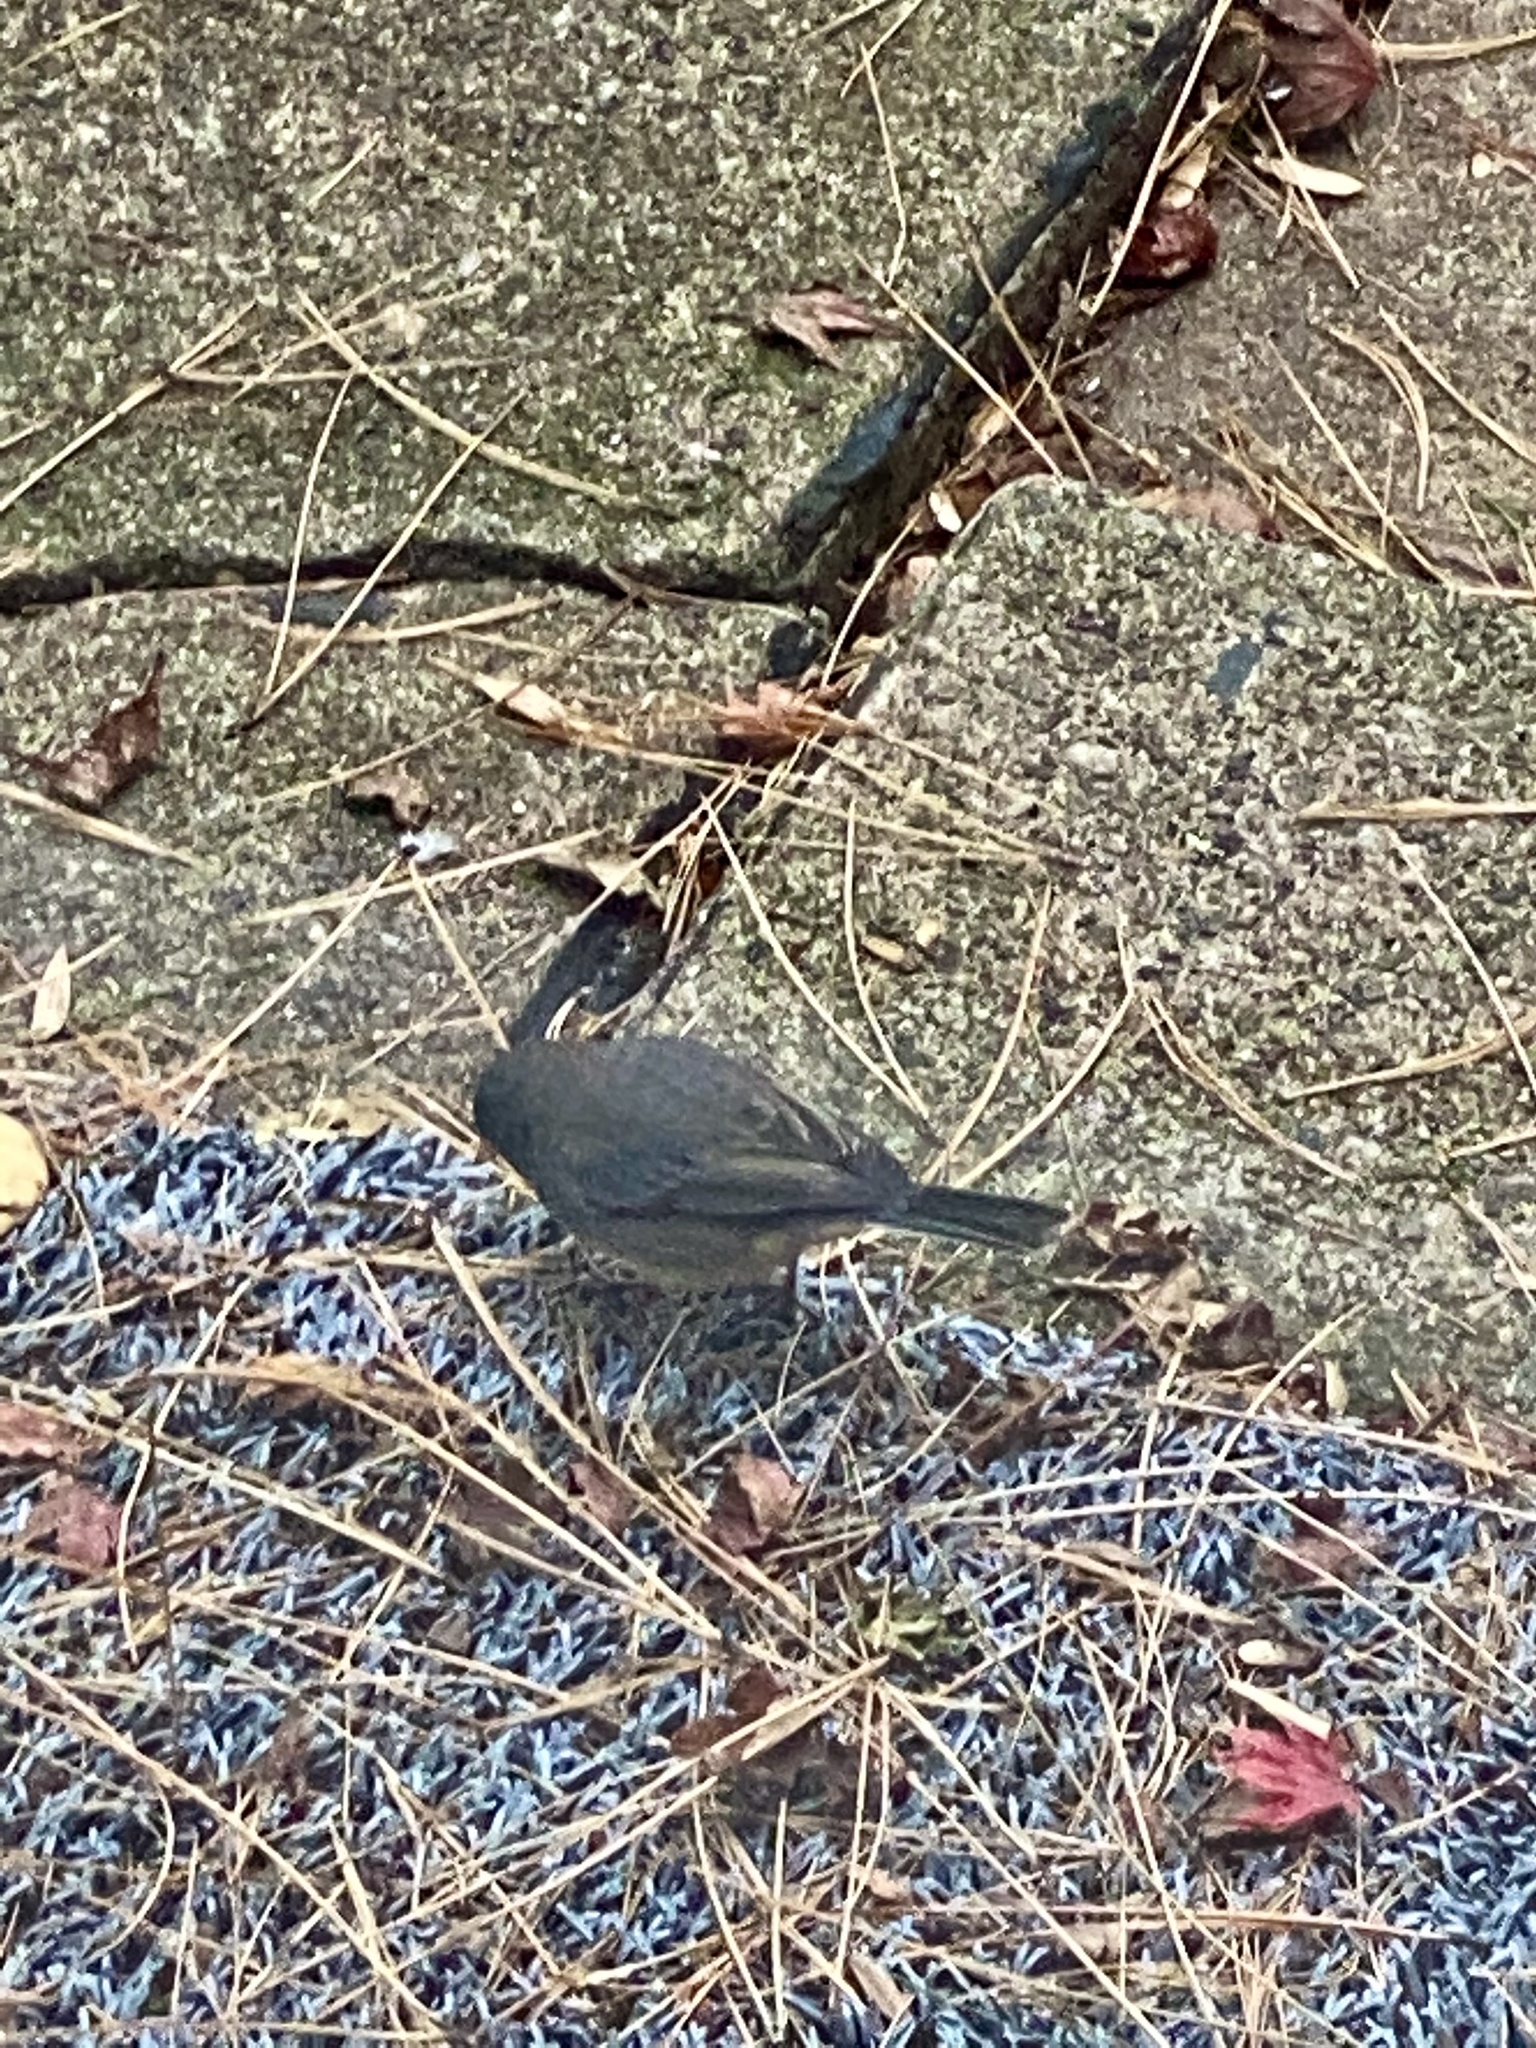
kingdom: Animalia
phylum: Chordata
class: Aves
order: Passeriformes
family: Passerellidae
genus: Junco
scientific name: Junco hyemalis
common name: Dark-eyed junco
